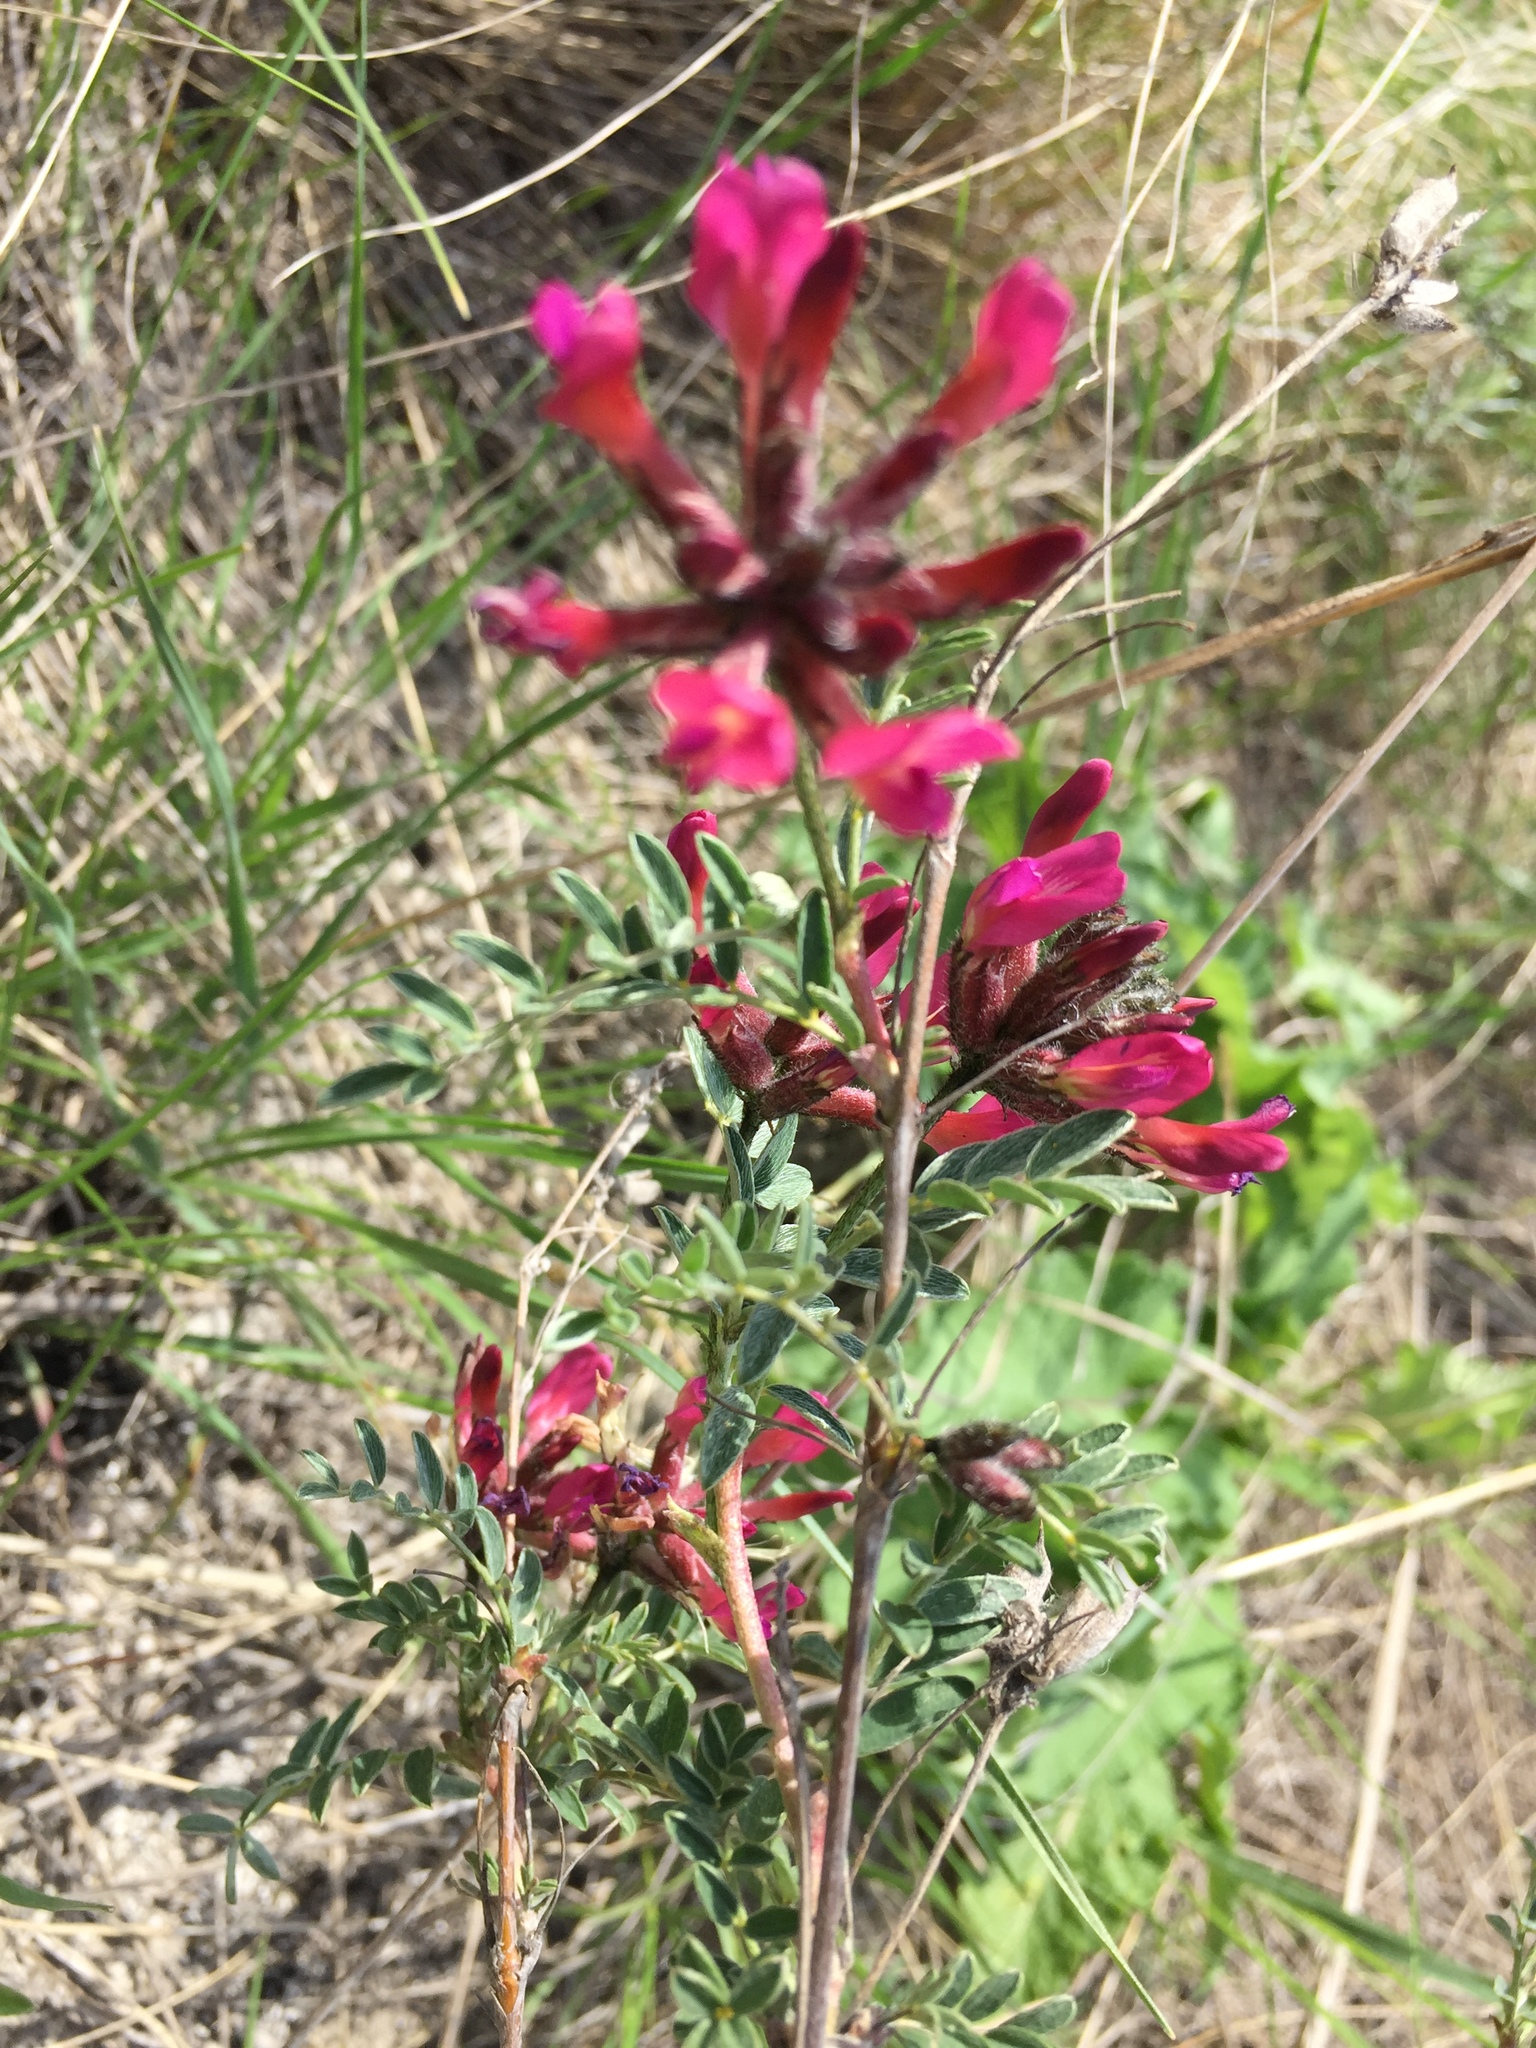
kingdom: Plantae
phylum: Tracheophyta
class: Magnoliopsida
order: Fabales
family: Fabaceae
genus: Astragalus
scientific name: Astragalus cornutus
